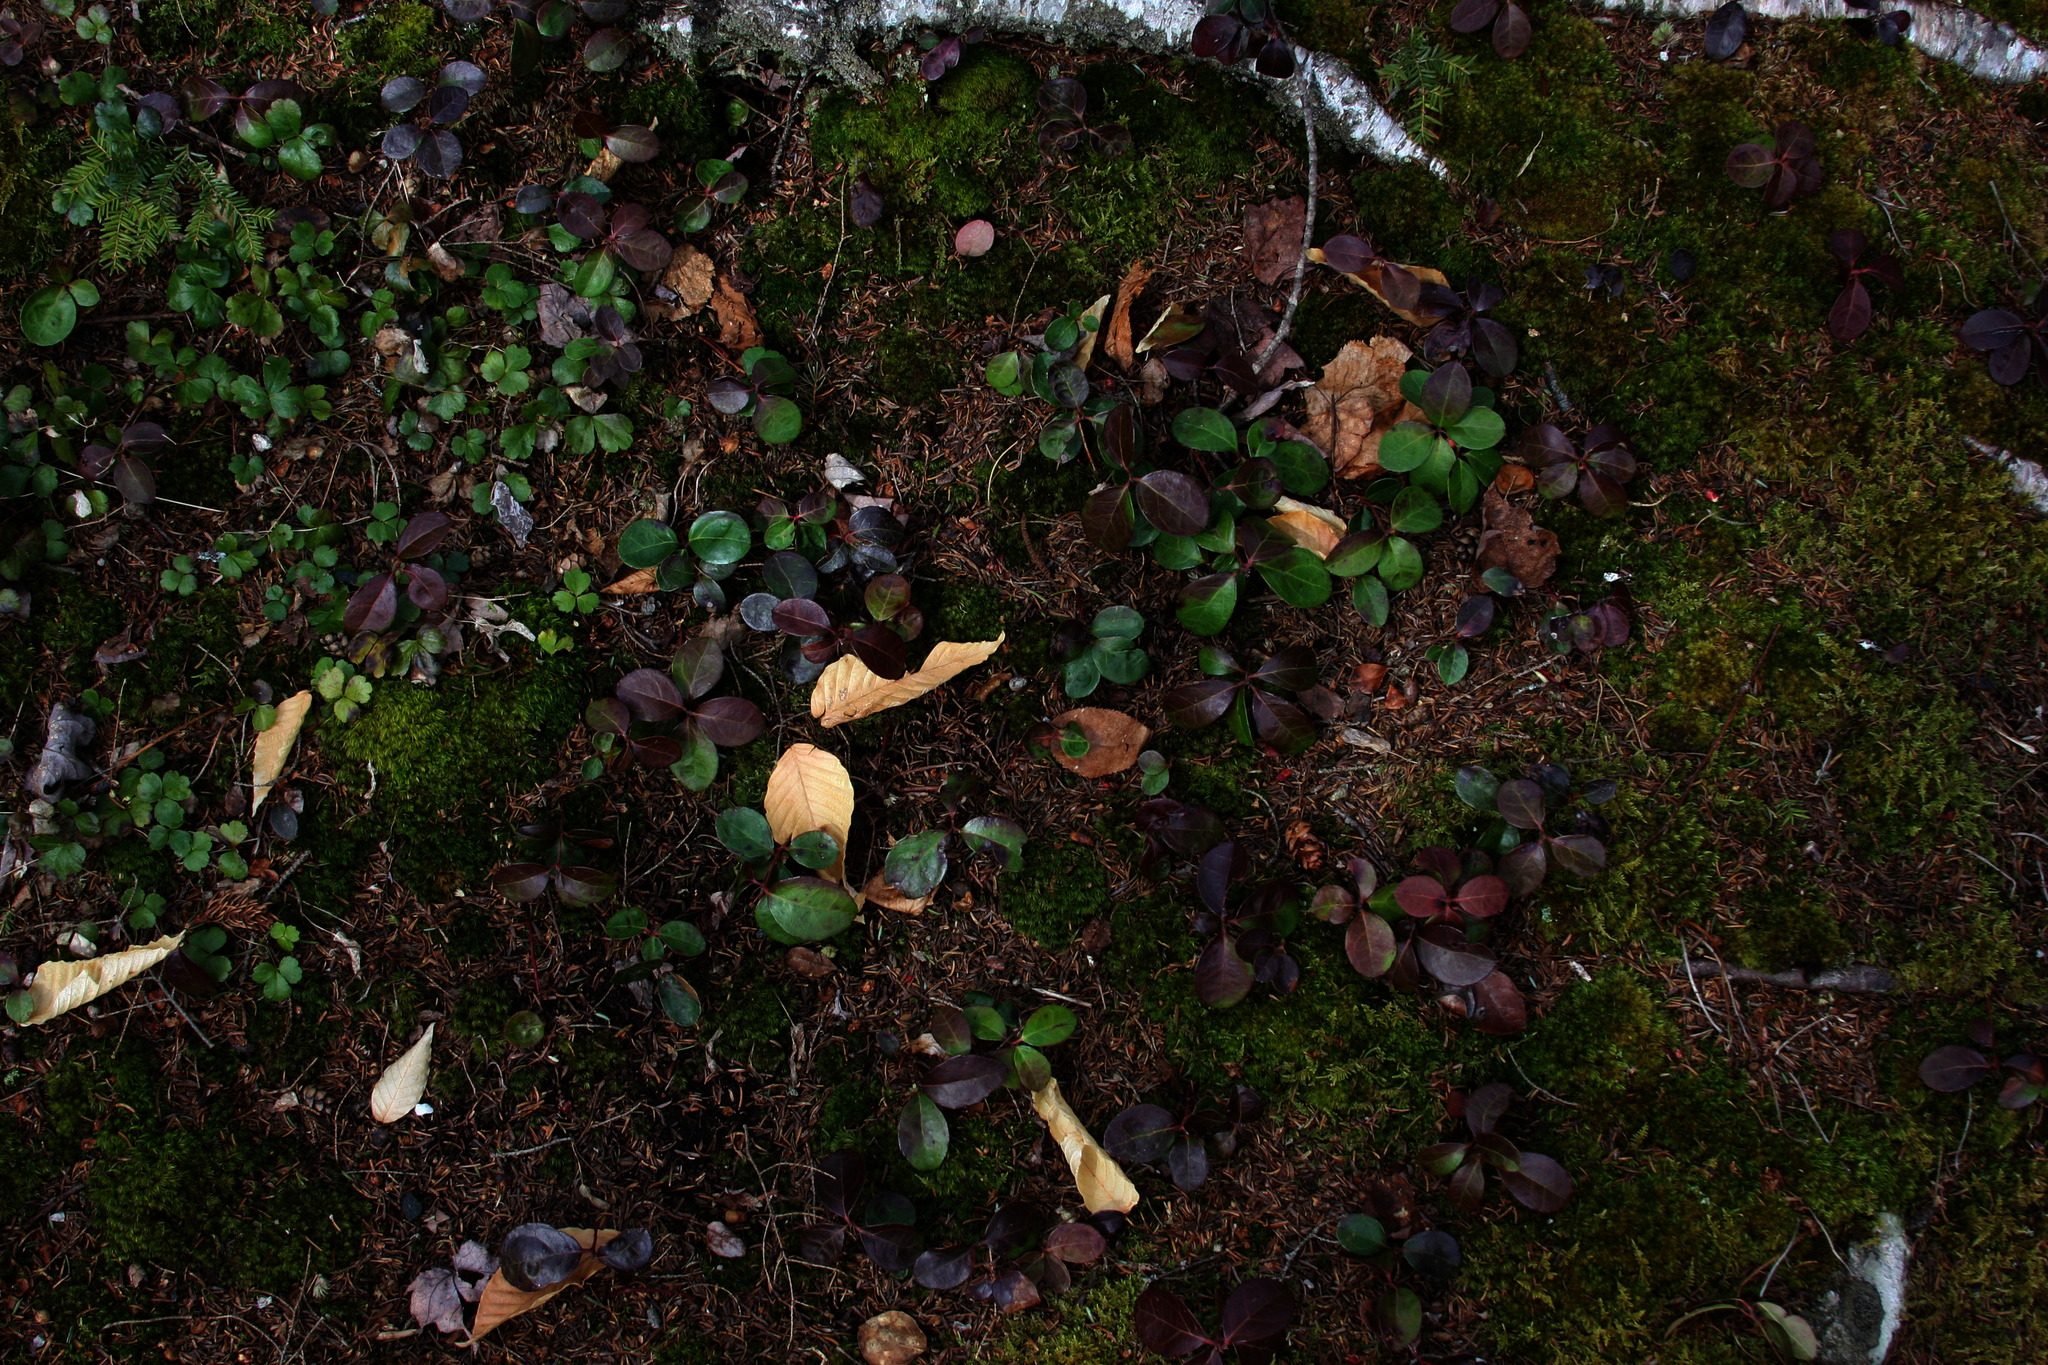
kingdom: Plantae
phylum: Tracheophyta
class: Magnoliopsida
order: Ericales
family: Ericaceae
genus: Gaultheria
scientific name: Gaultheria procumbens
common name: Checkerberry
